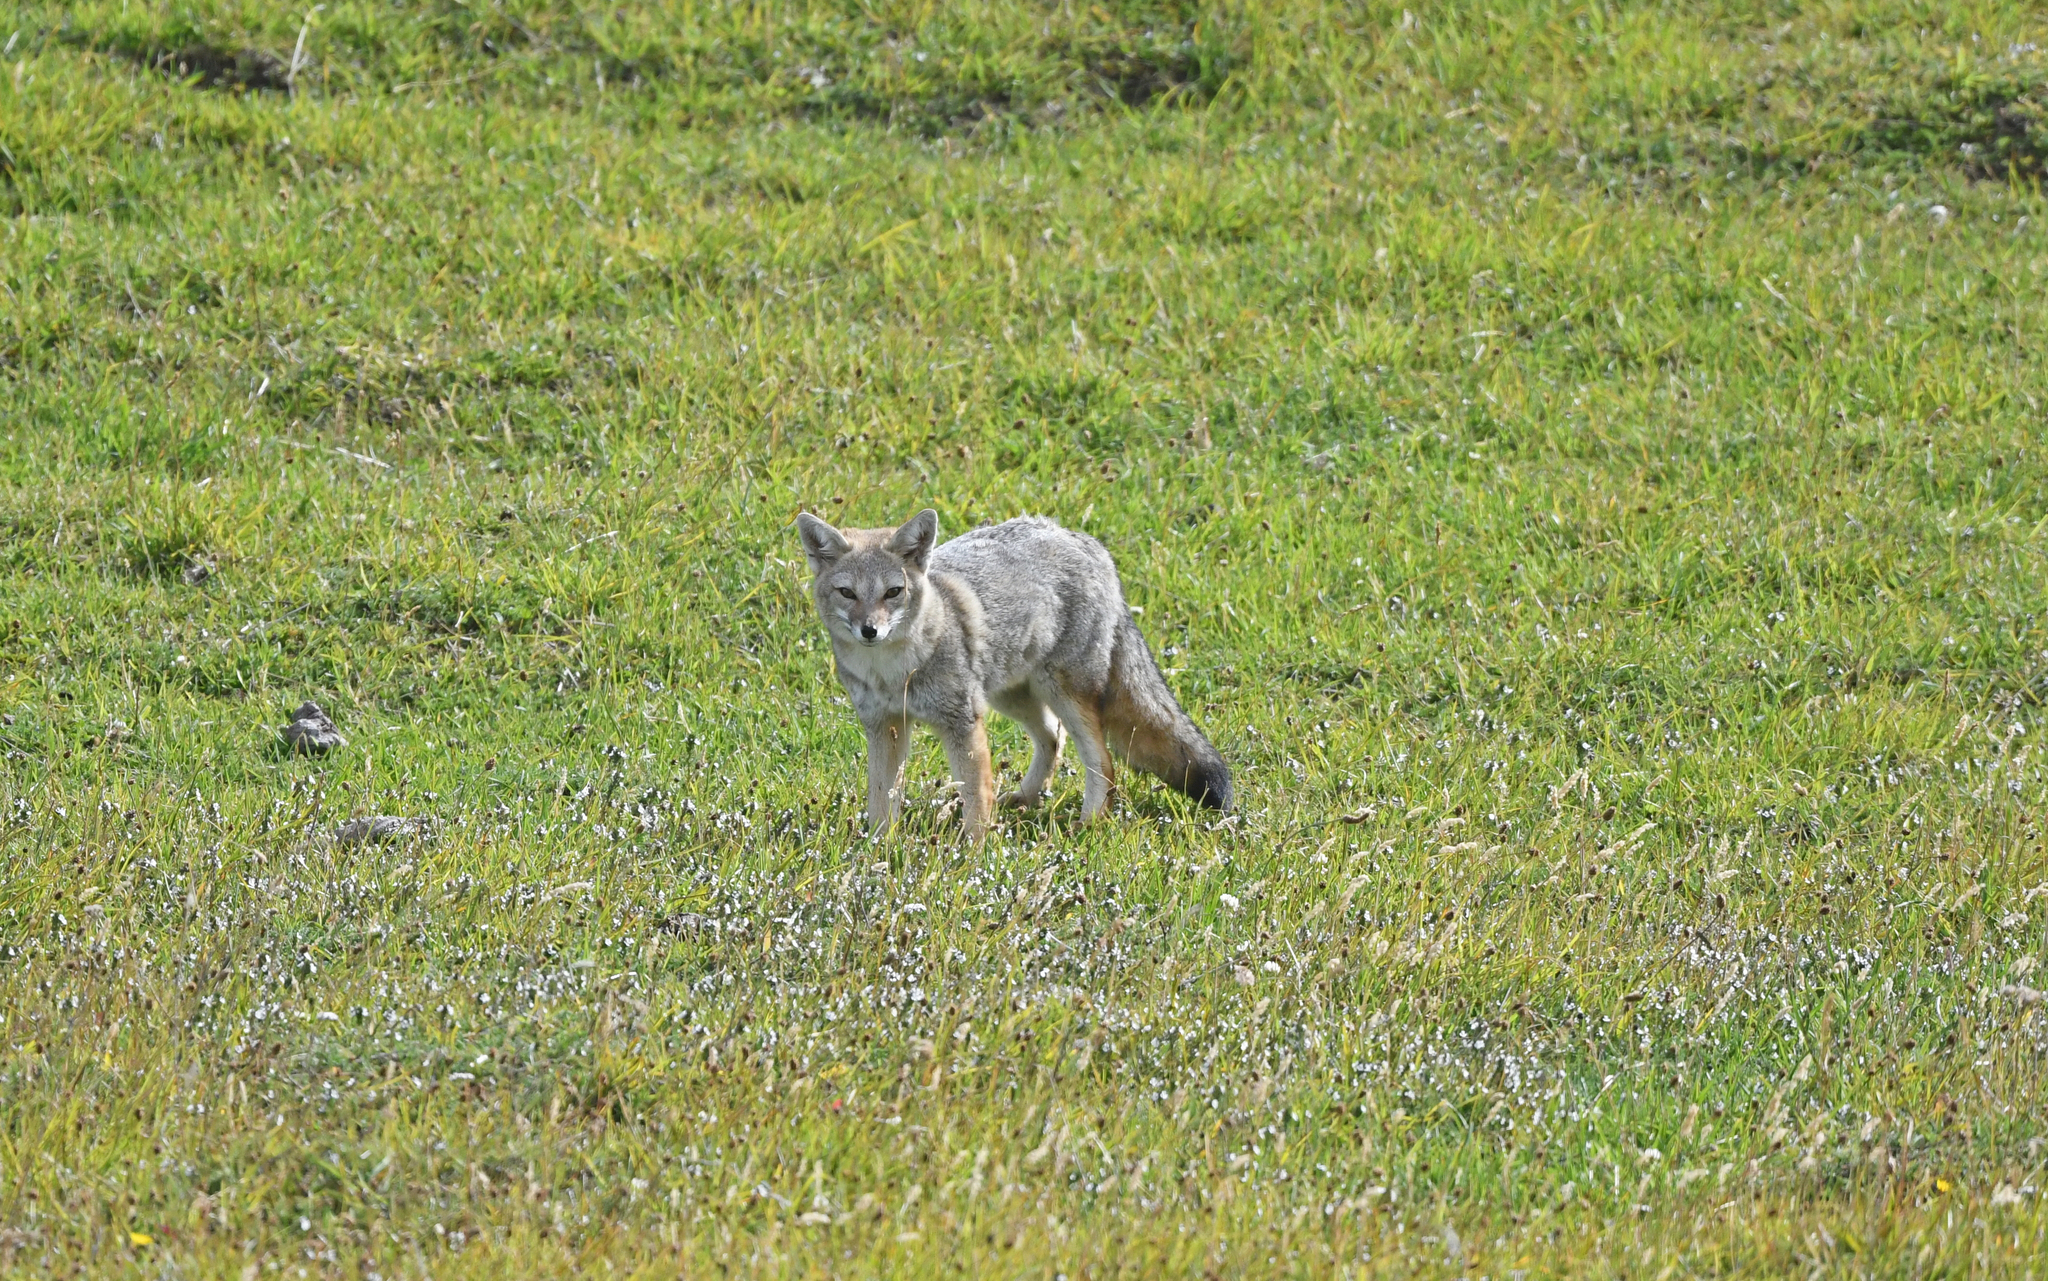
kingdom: Animalia
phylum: Chordata
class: Mammalia
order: Carnivora
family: Canidae
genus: Lycalopex
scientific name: Lycalopex gymnocercus
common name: Pampas fox
